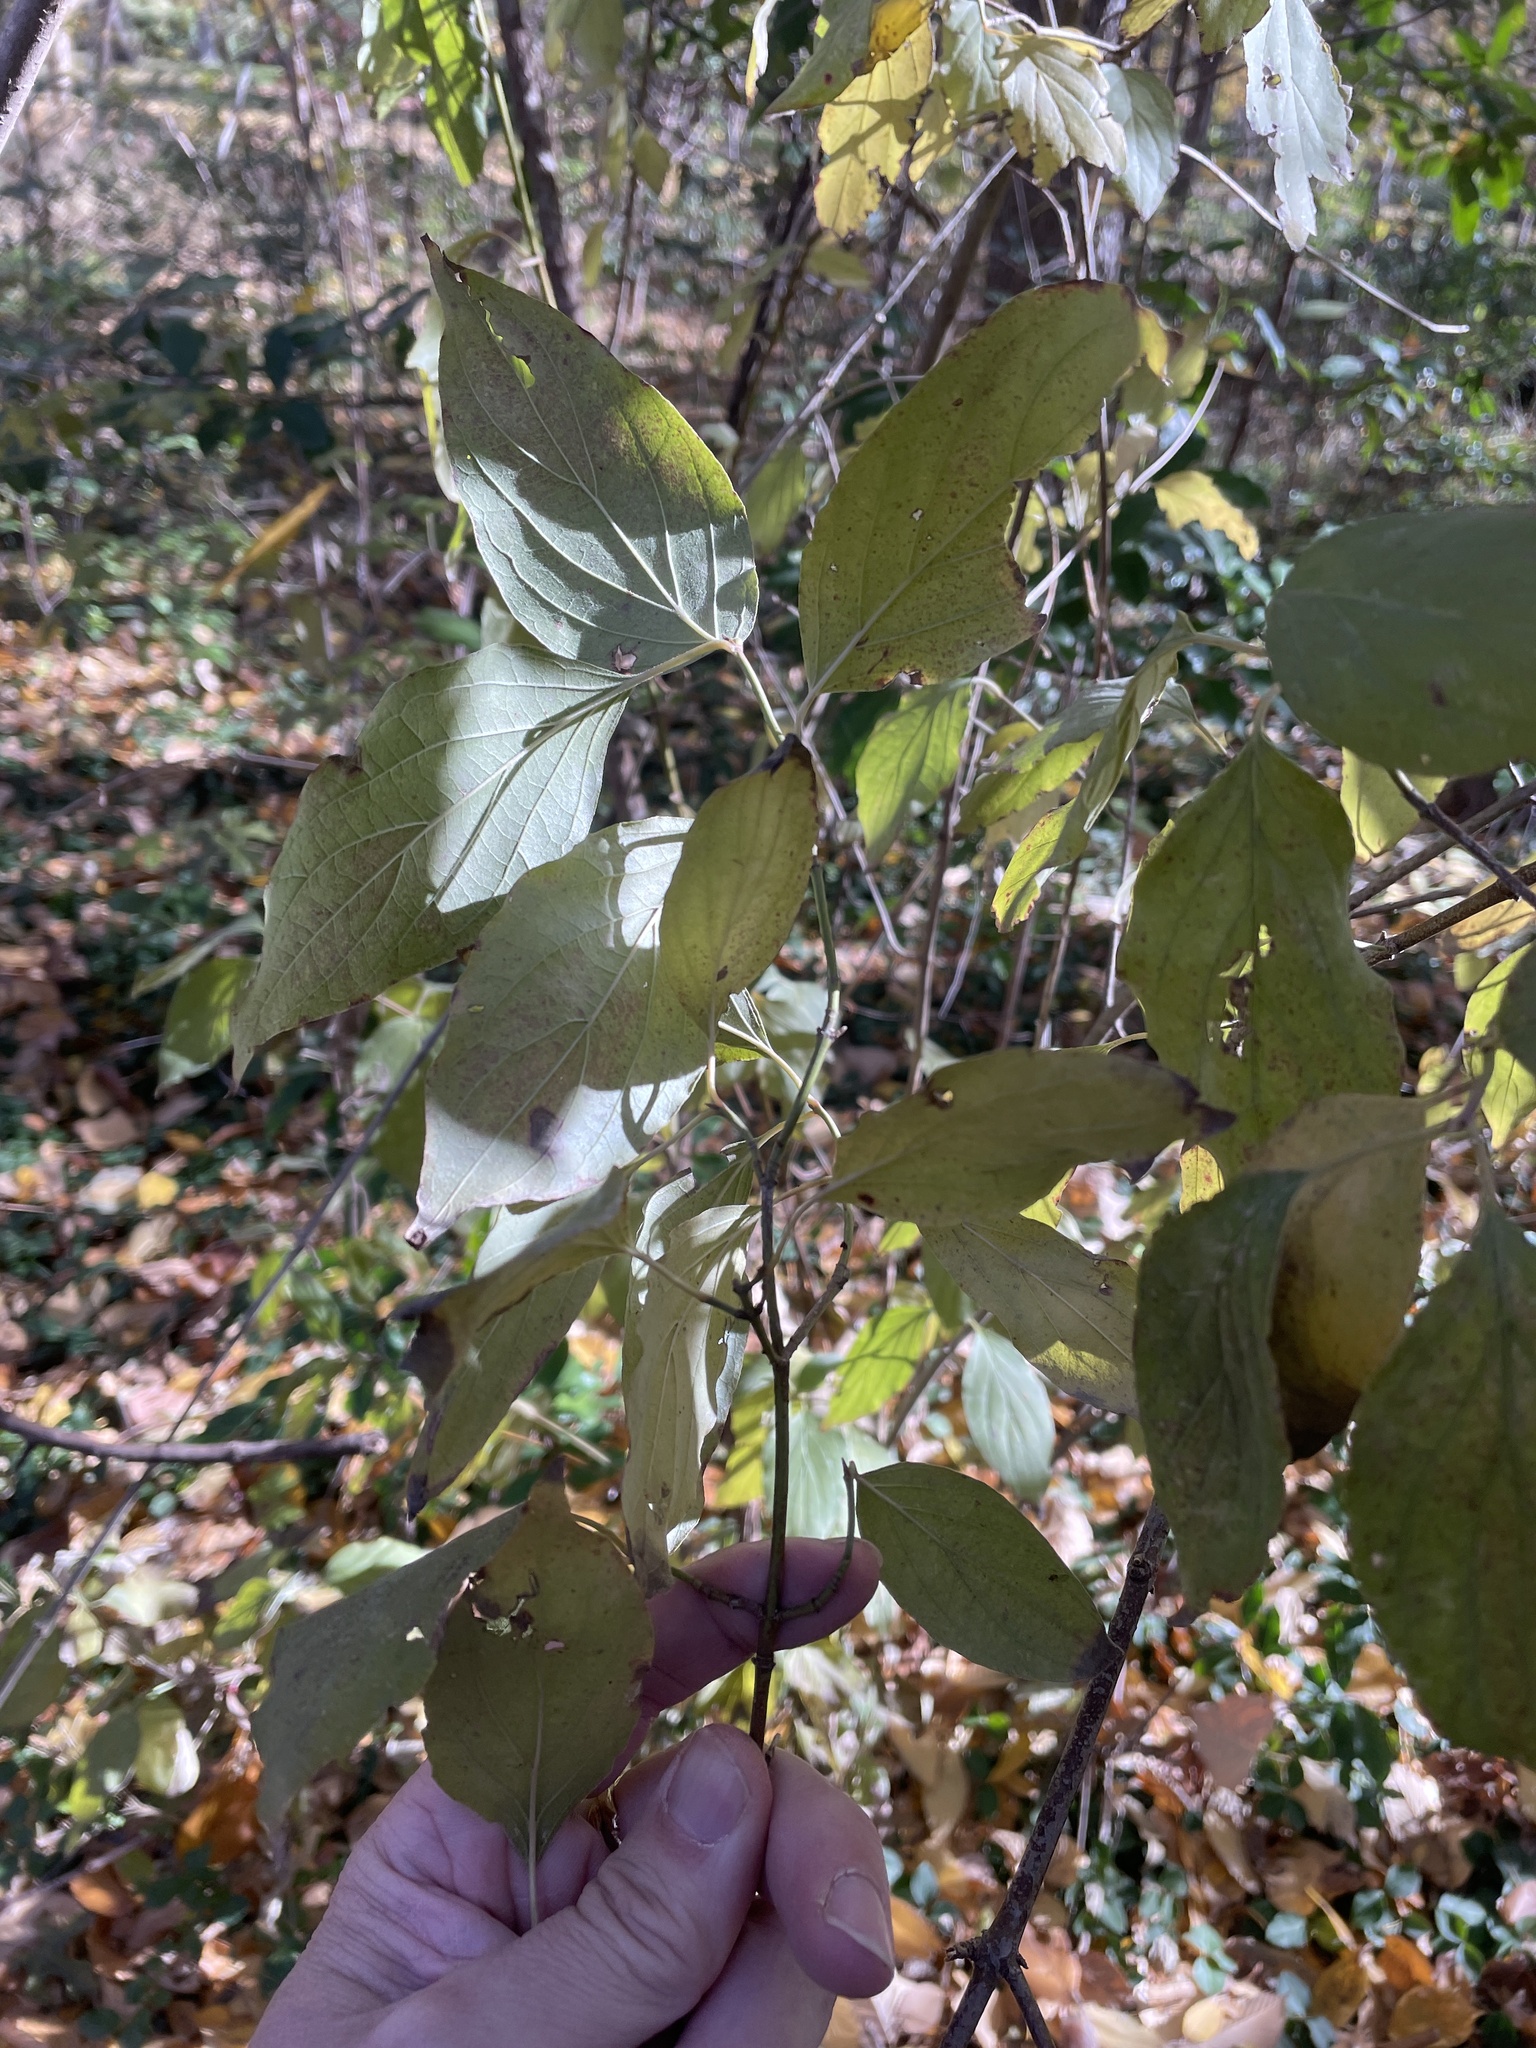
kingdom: Plantae
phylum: Tracheophyta
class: Magnoliopsida
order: Cornales
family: Cornaceae
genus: Cornus
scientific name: Cornus drummondii
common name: Rough-leaf dogwood
